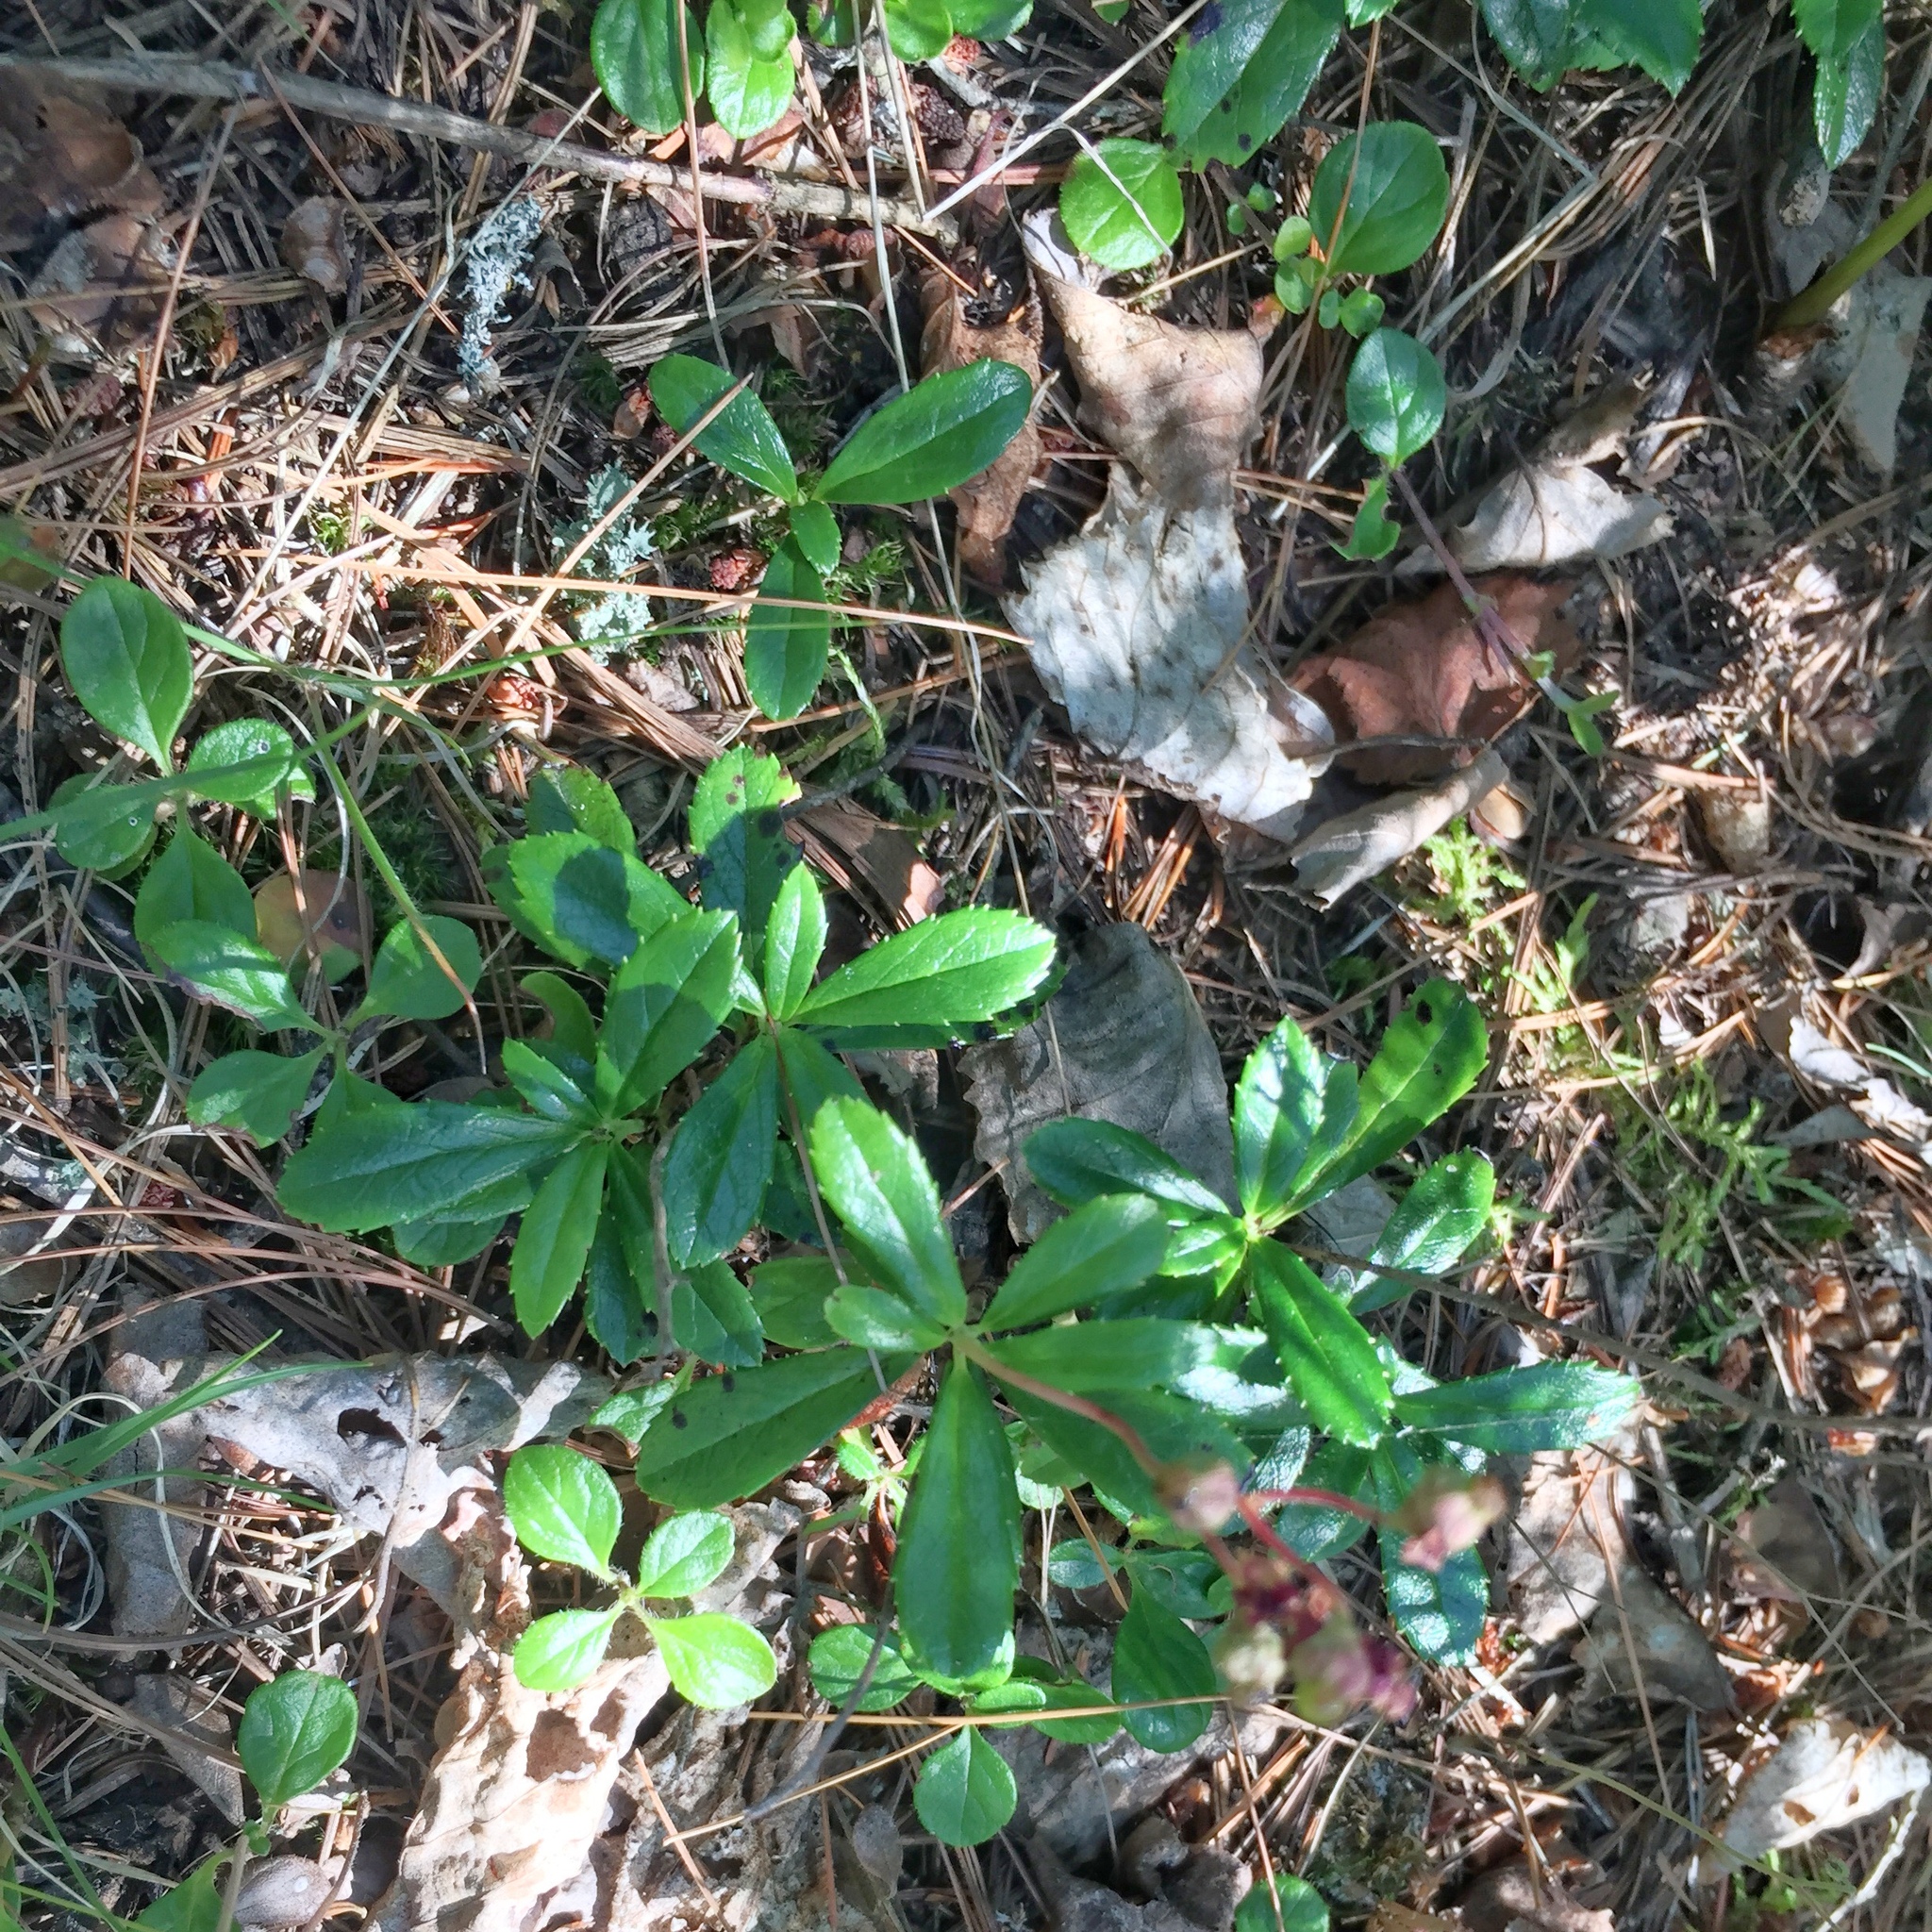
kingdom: Plantae
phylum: Tracheophyta
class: Magnoliopsida
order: Ericales
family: Ericaceae
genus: Chimaphila
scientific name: Chimaphila umbellata
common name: Pipsissewa
